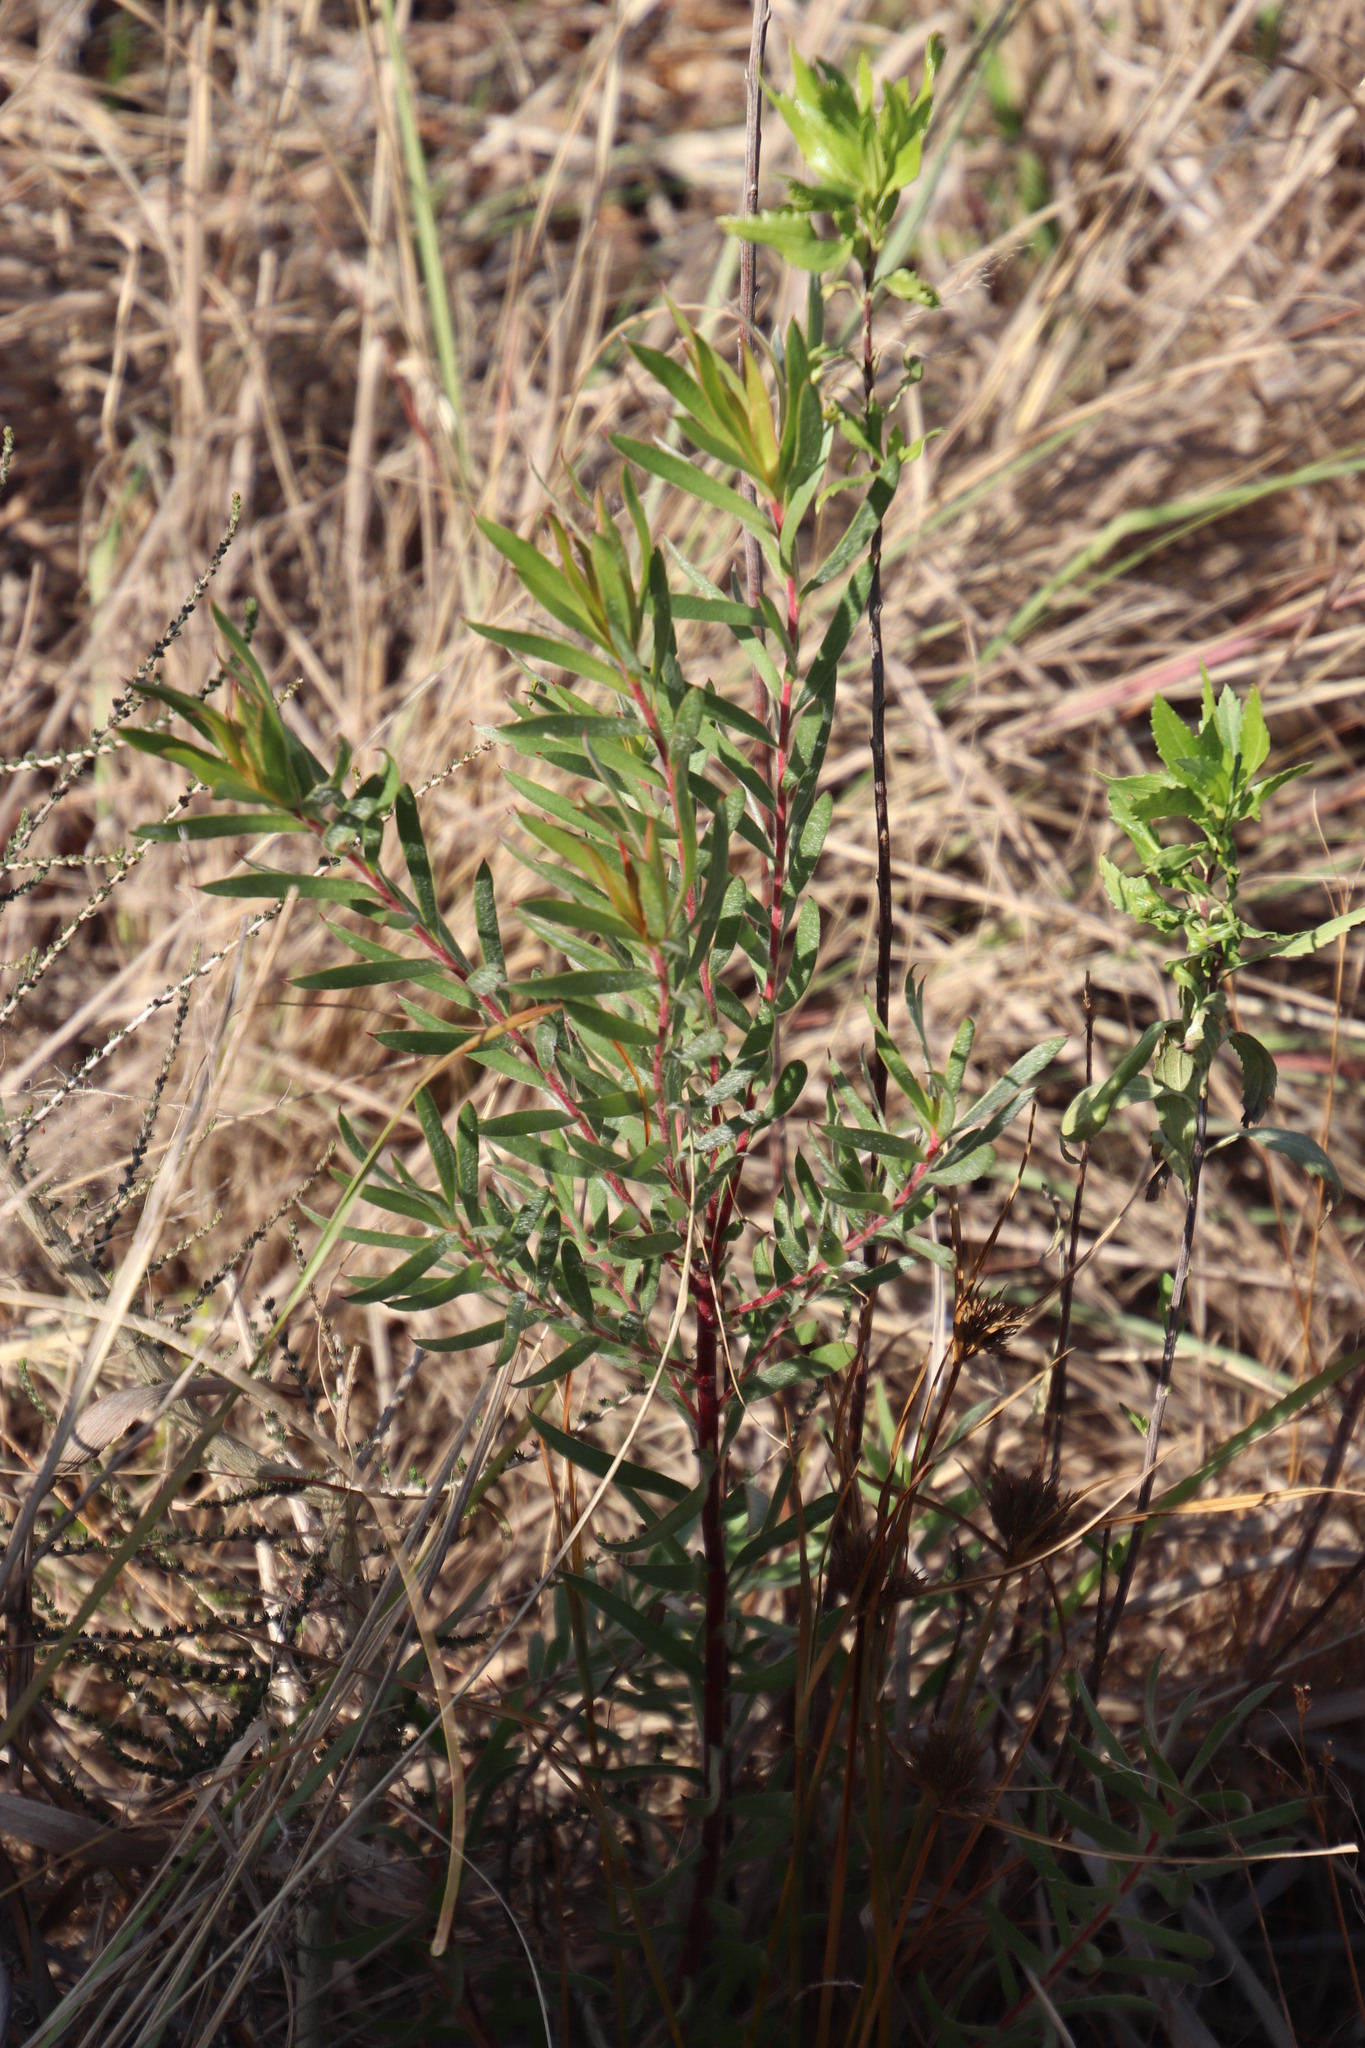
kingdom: Plantae
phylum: Tracheophyta
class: Magnoliopsida
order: Proteales
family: Proteaceae
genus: Leucadendron
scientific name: Leucadendron floridum
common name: Flats conebush
